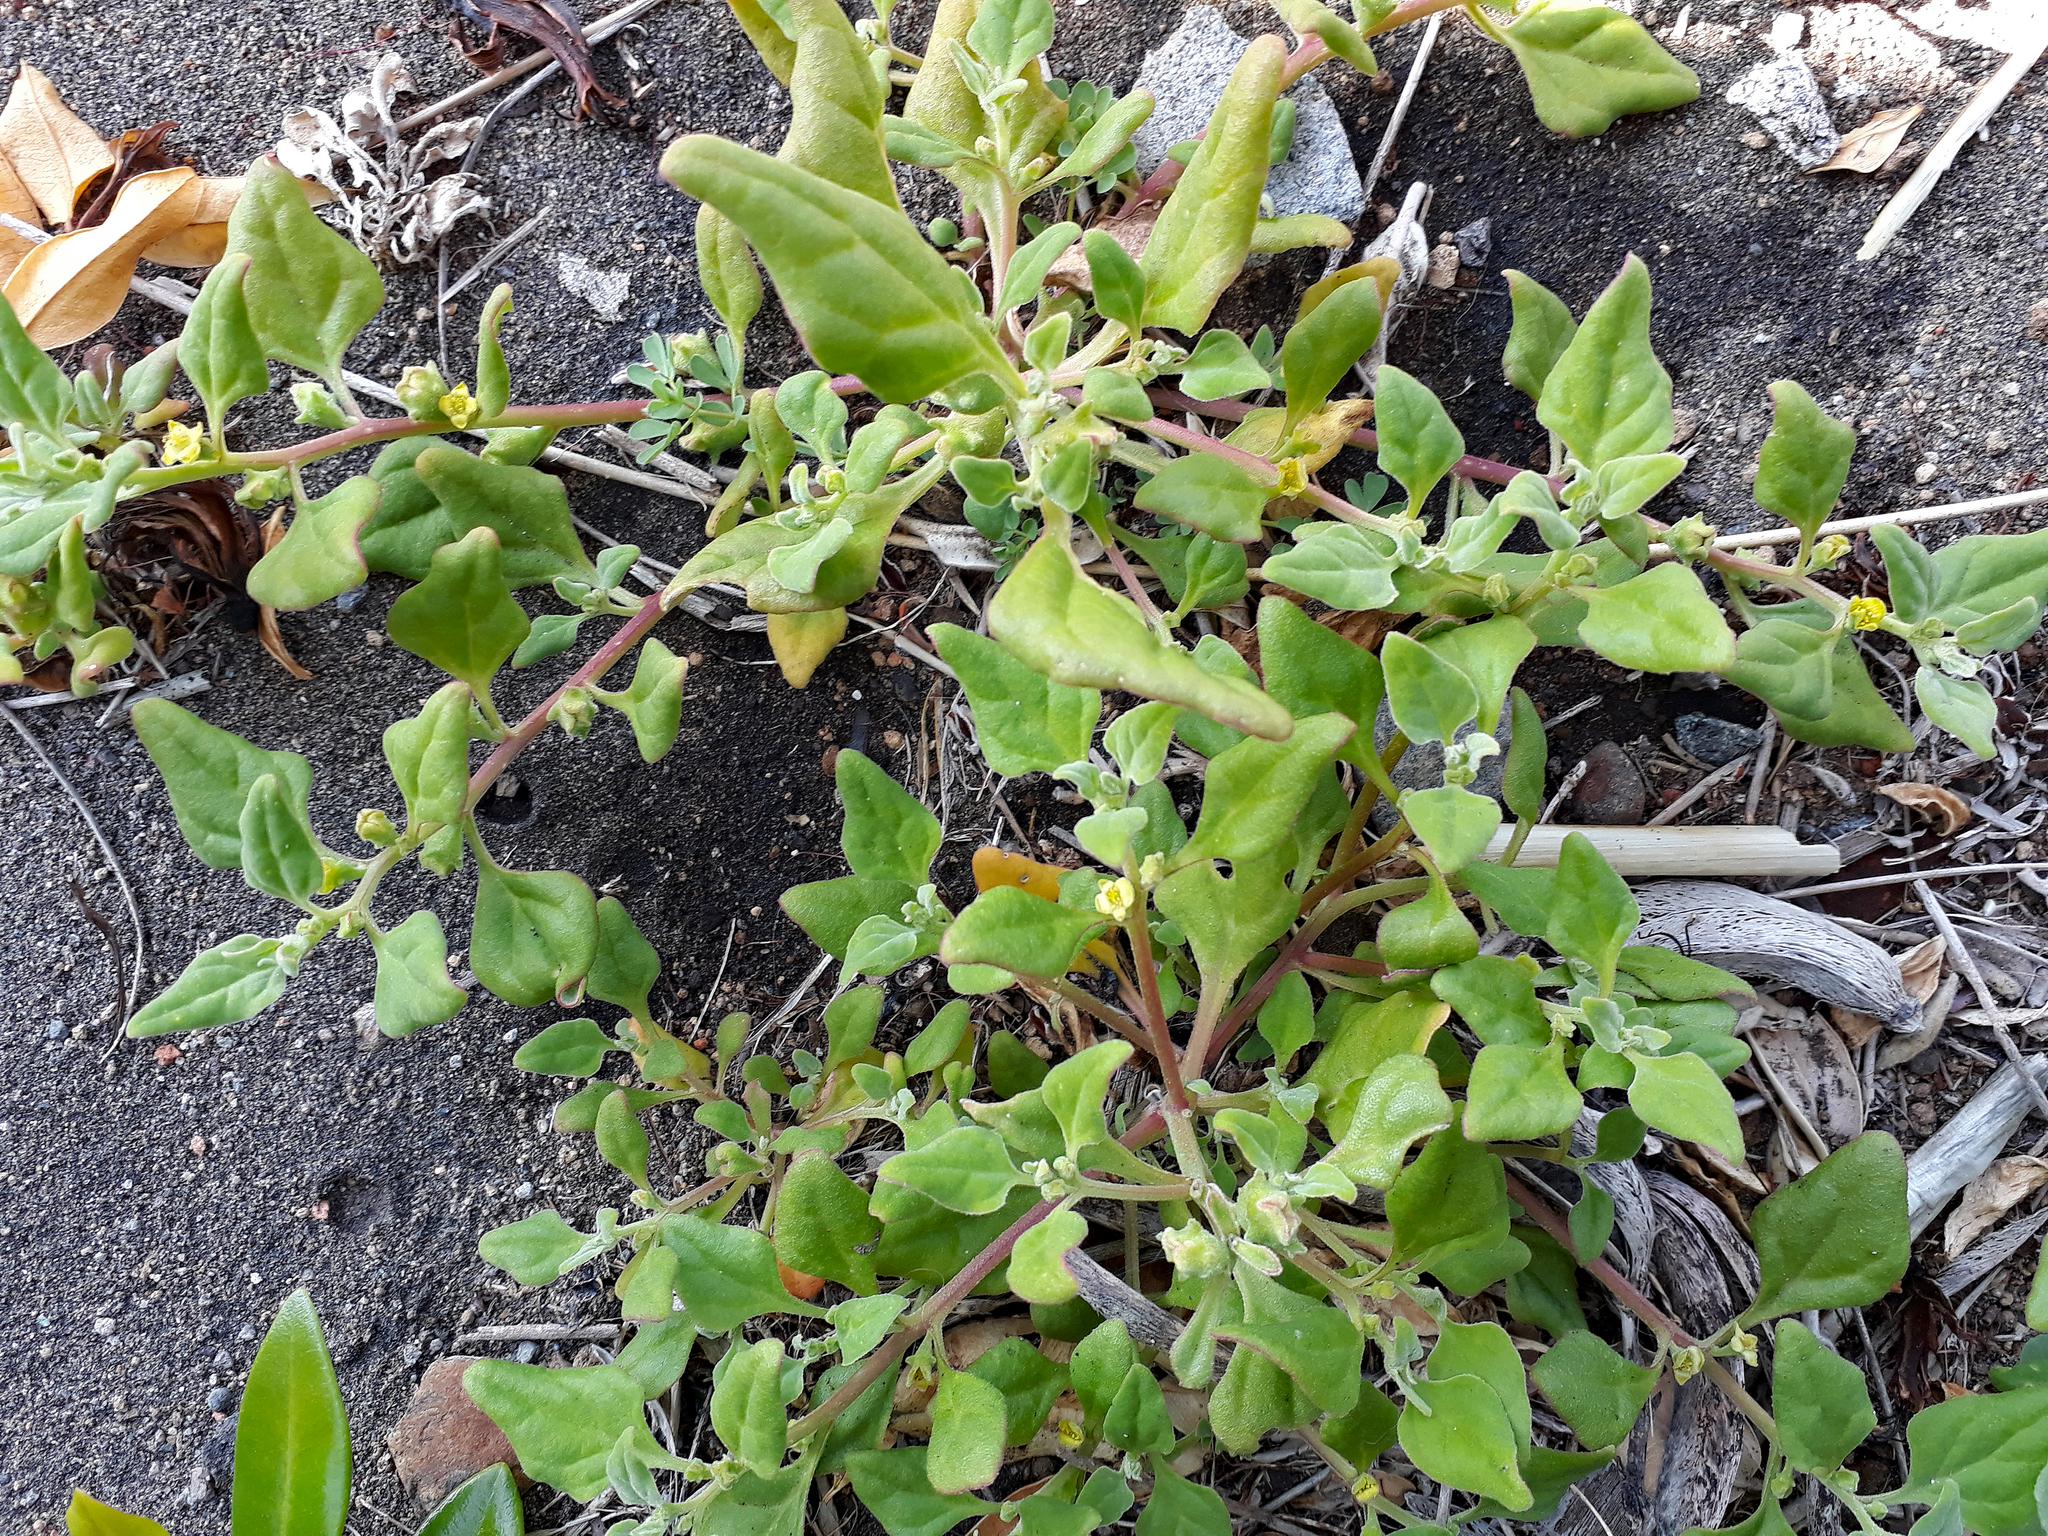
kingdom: Plantae
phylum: Tracheophyta
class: Magnoliopsida
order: Caryophyllales
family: Aizoaceae
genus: Tetragonia
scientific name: Tetragonia tetragonoides
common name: New zealand-spinach
